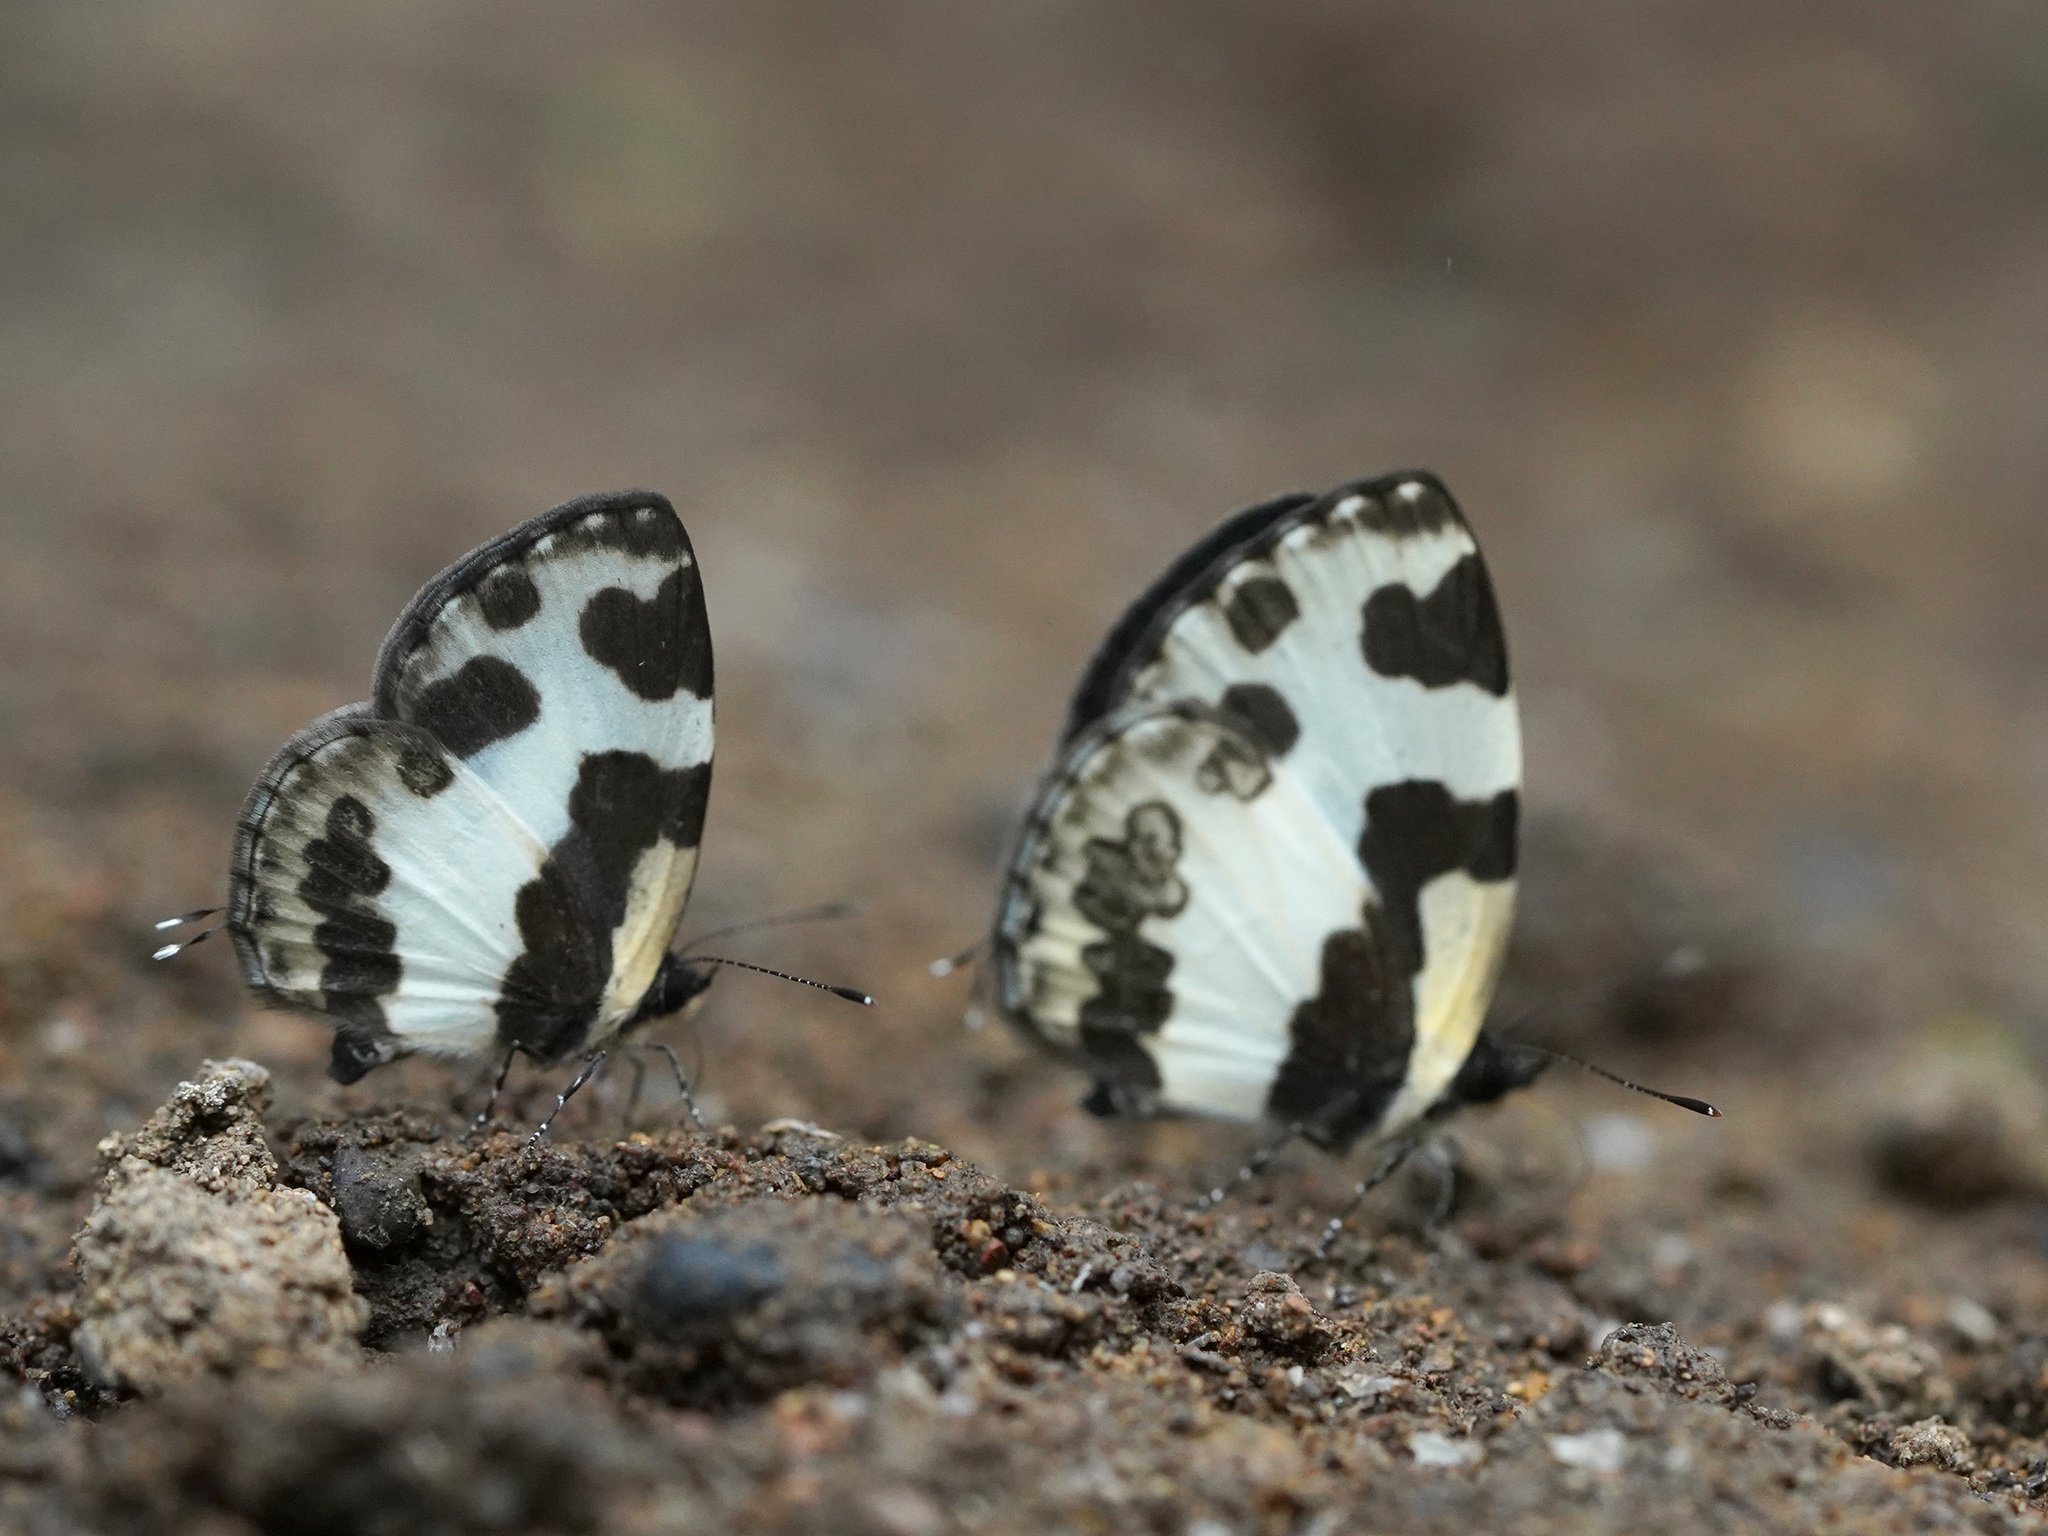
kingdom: Animalia
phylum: Arthropoda
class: Insecta
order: Lepidoptera
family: Lycaenidae
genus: Caleta
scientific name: Caleta elna
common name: Elbowed pierrot
